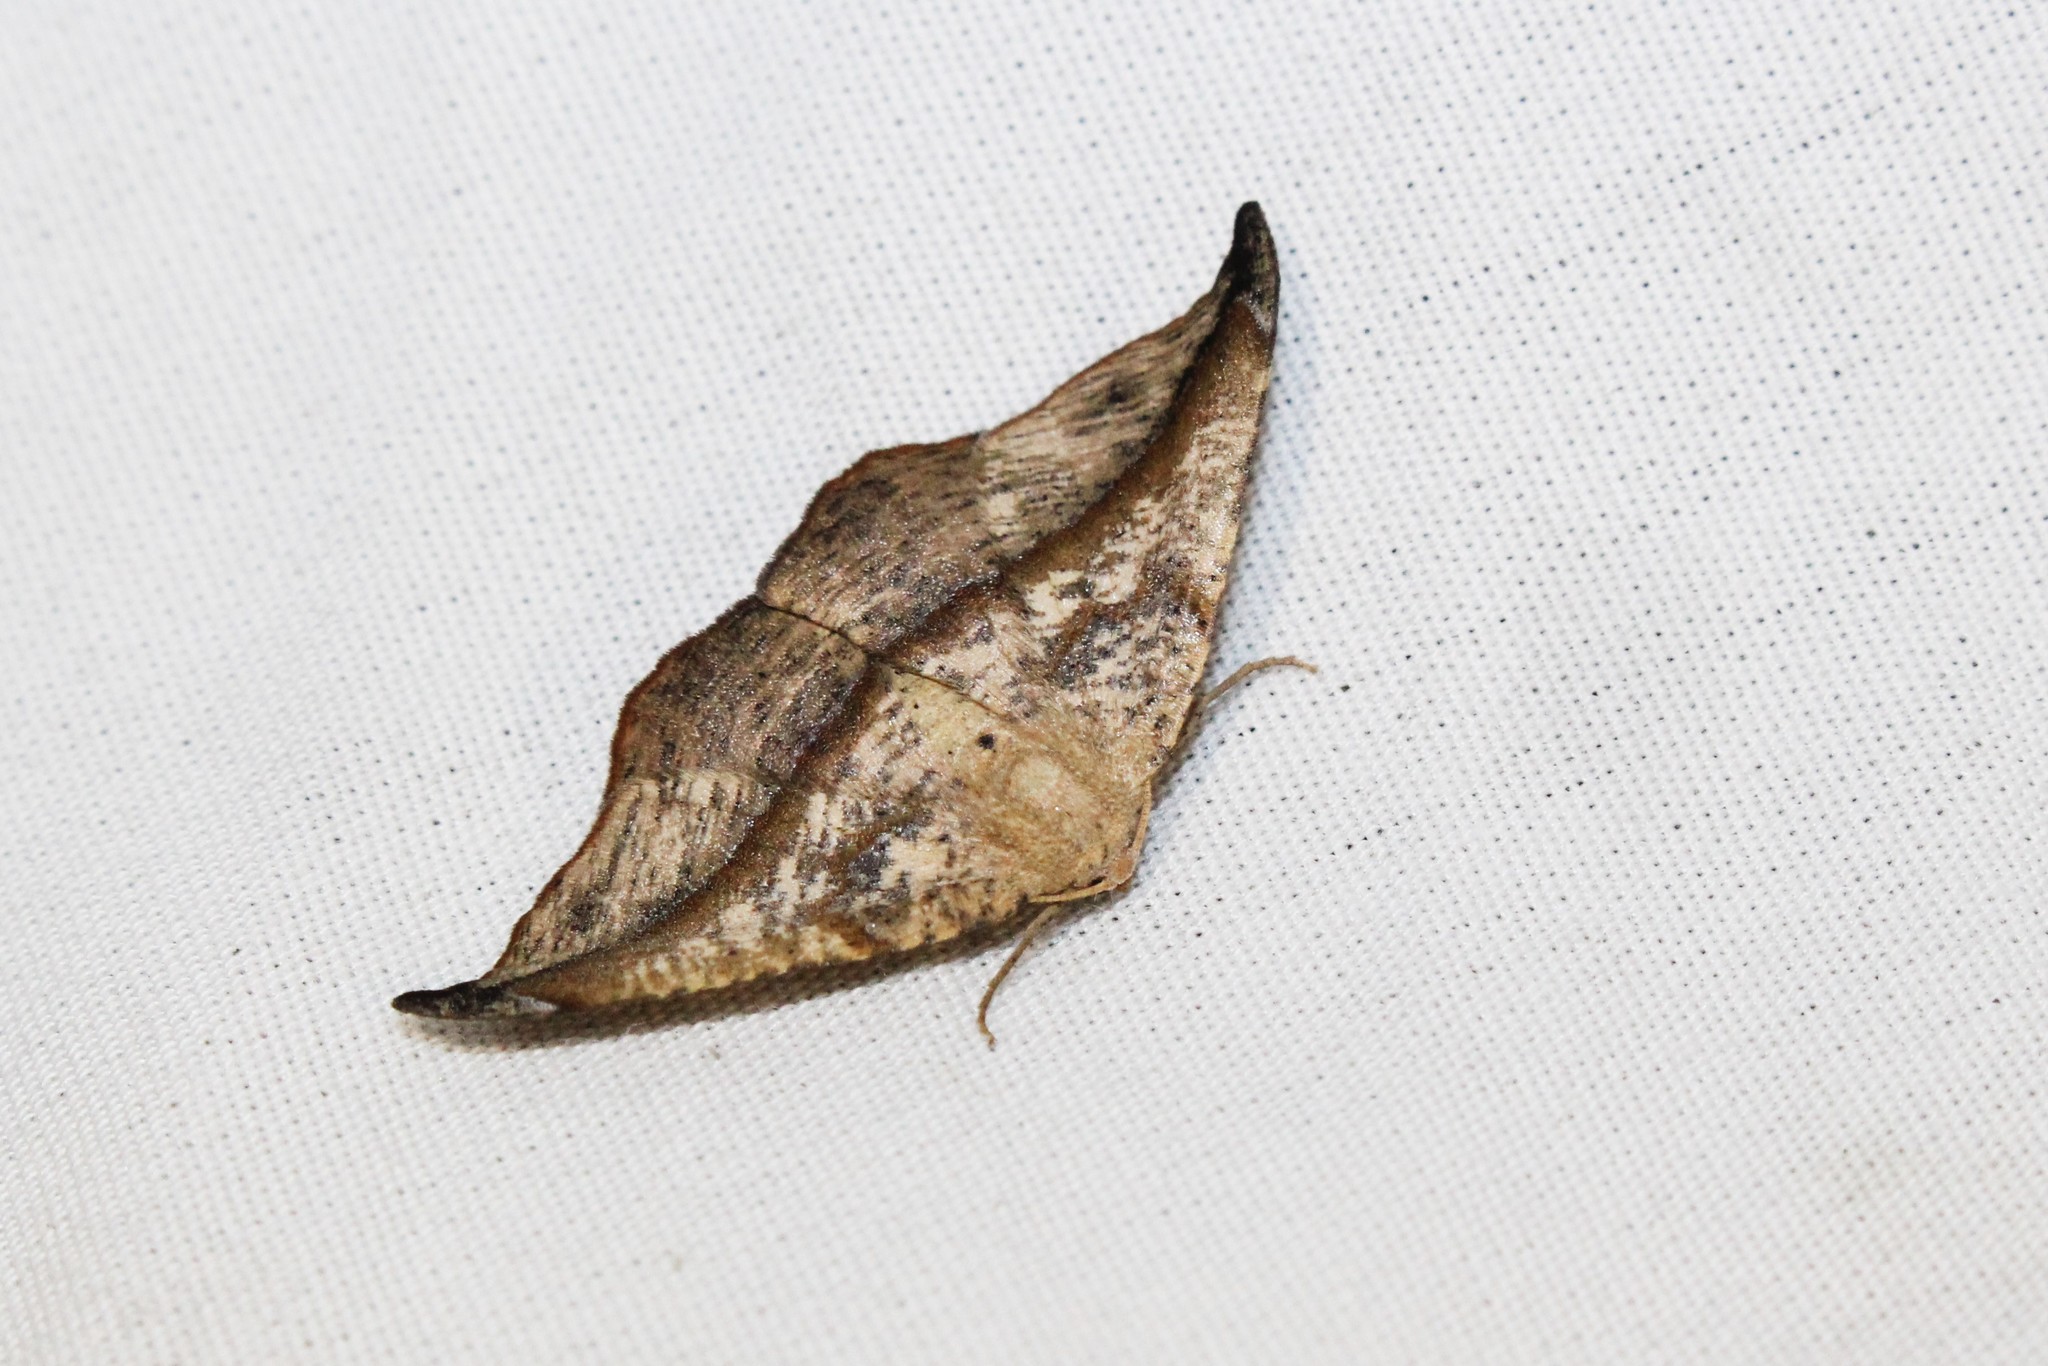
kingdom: Animalia
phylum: Arthropoda
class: Insecta
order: Lepidoptera
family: Geometridae
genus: Patalene
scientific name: Patalene olyzonaria
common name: Juniper geometer moth
